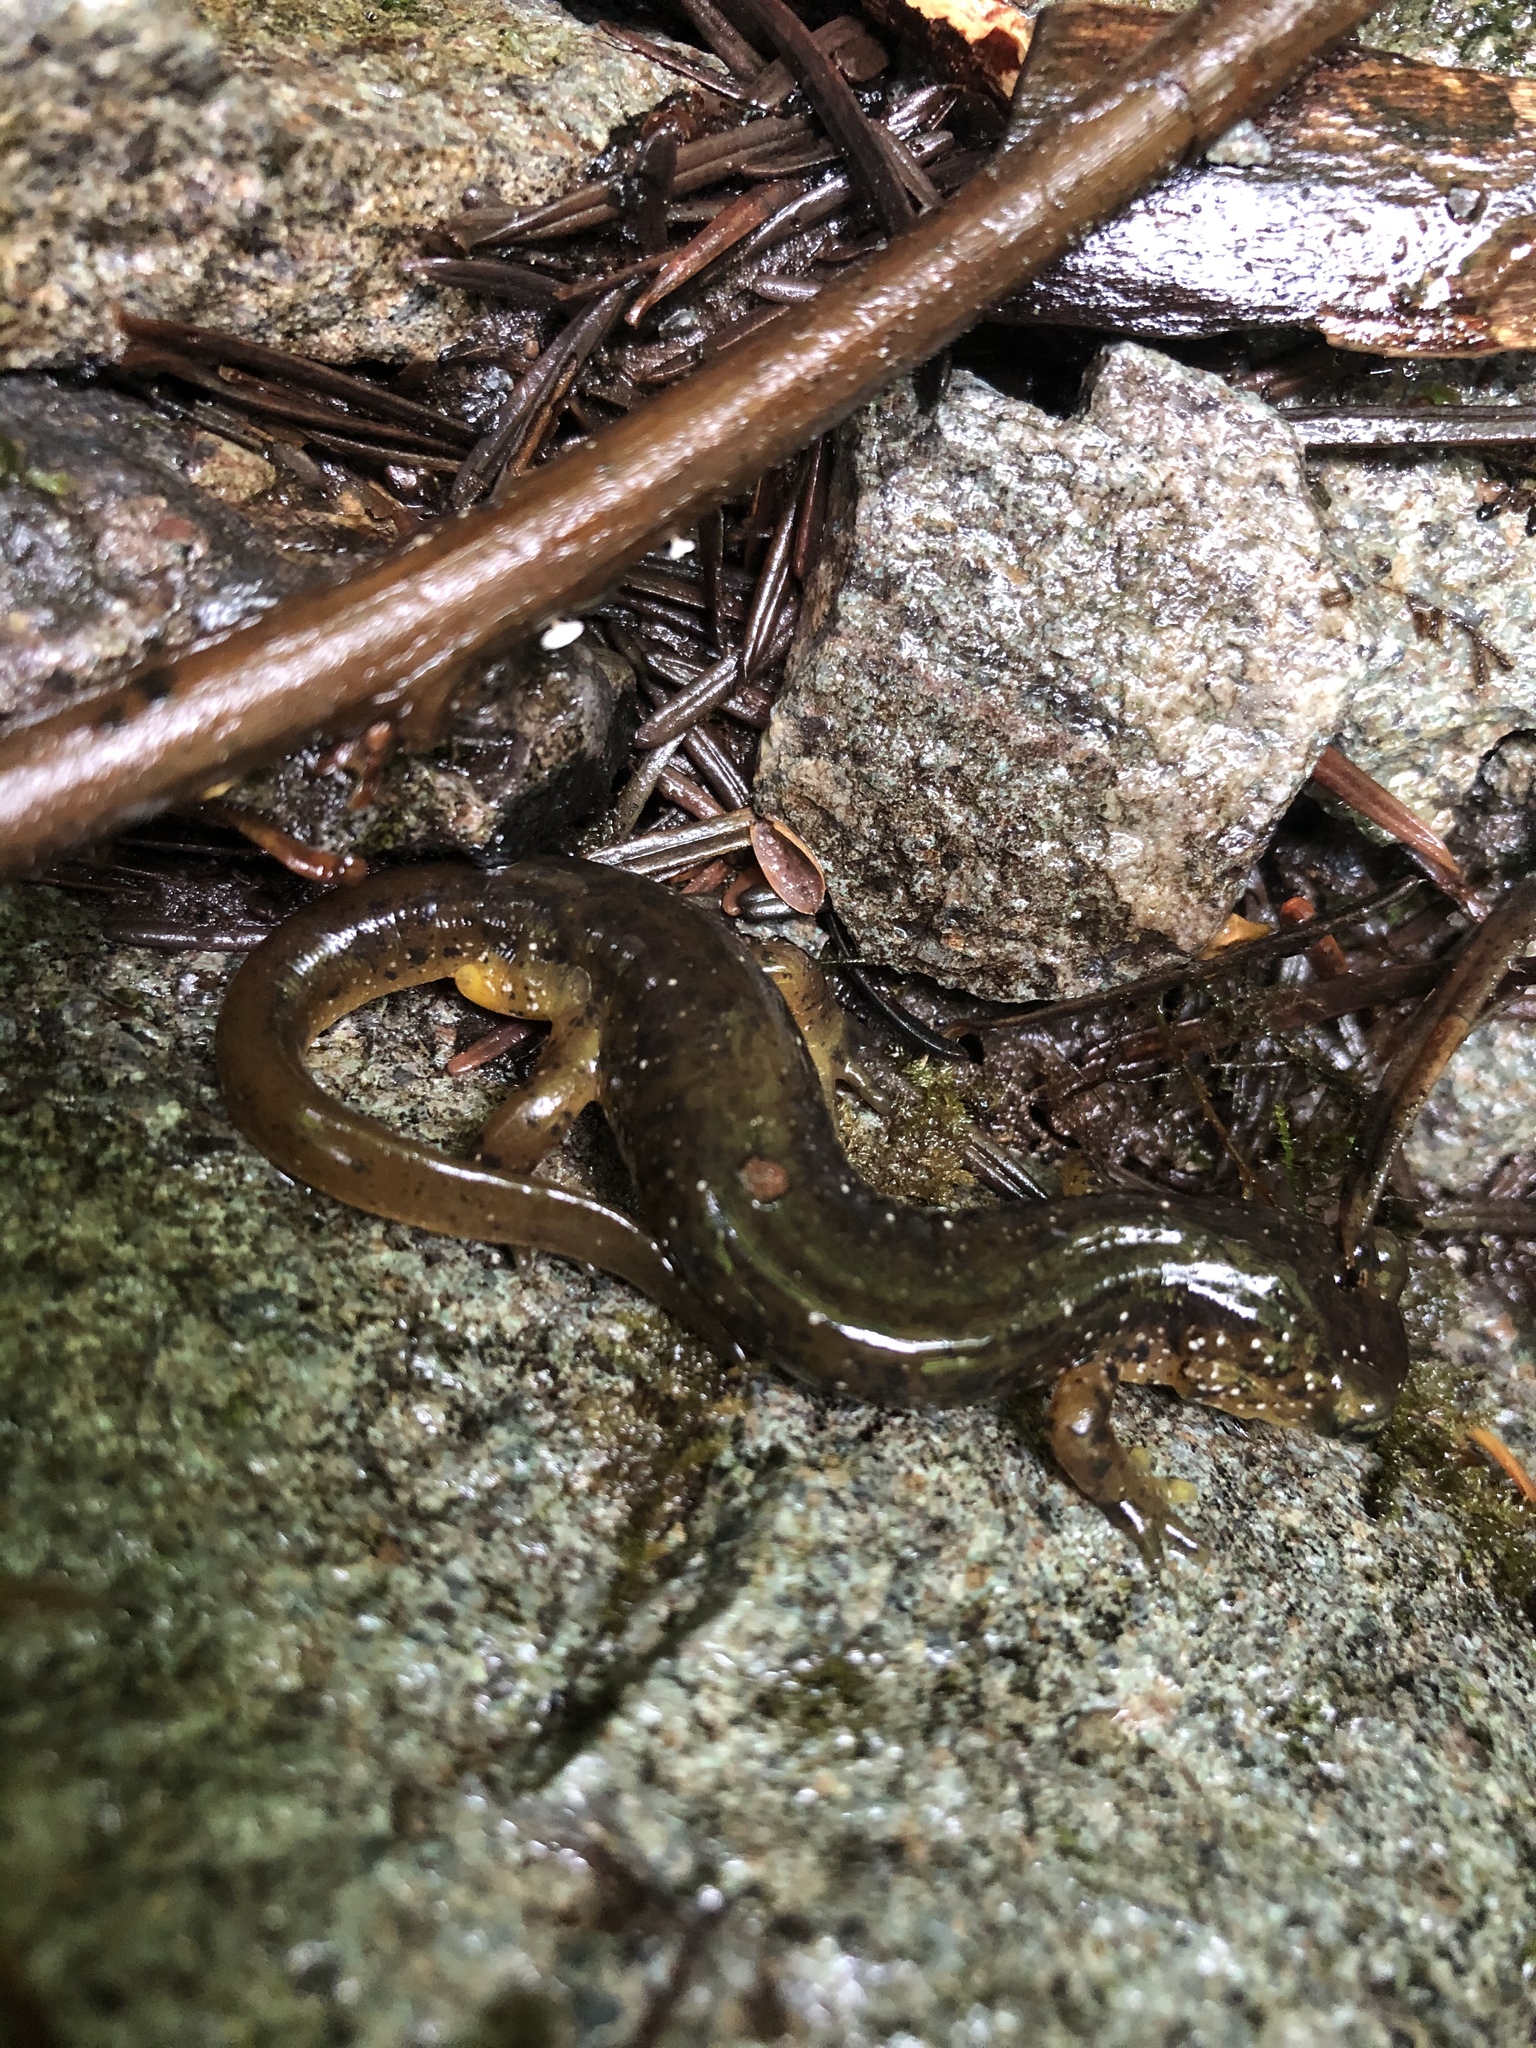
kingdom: Animalia
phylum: Chordata
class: Amphibia
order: Caudata
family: Rhyacotritonidae
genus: Rhyacotriton
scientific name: Rhyacotriton cascadae
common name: Cascade torrent salamander
